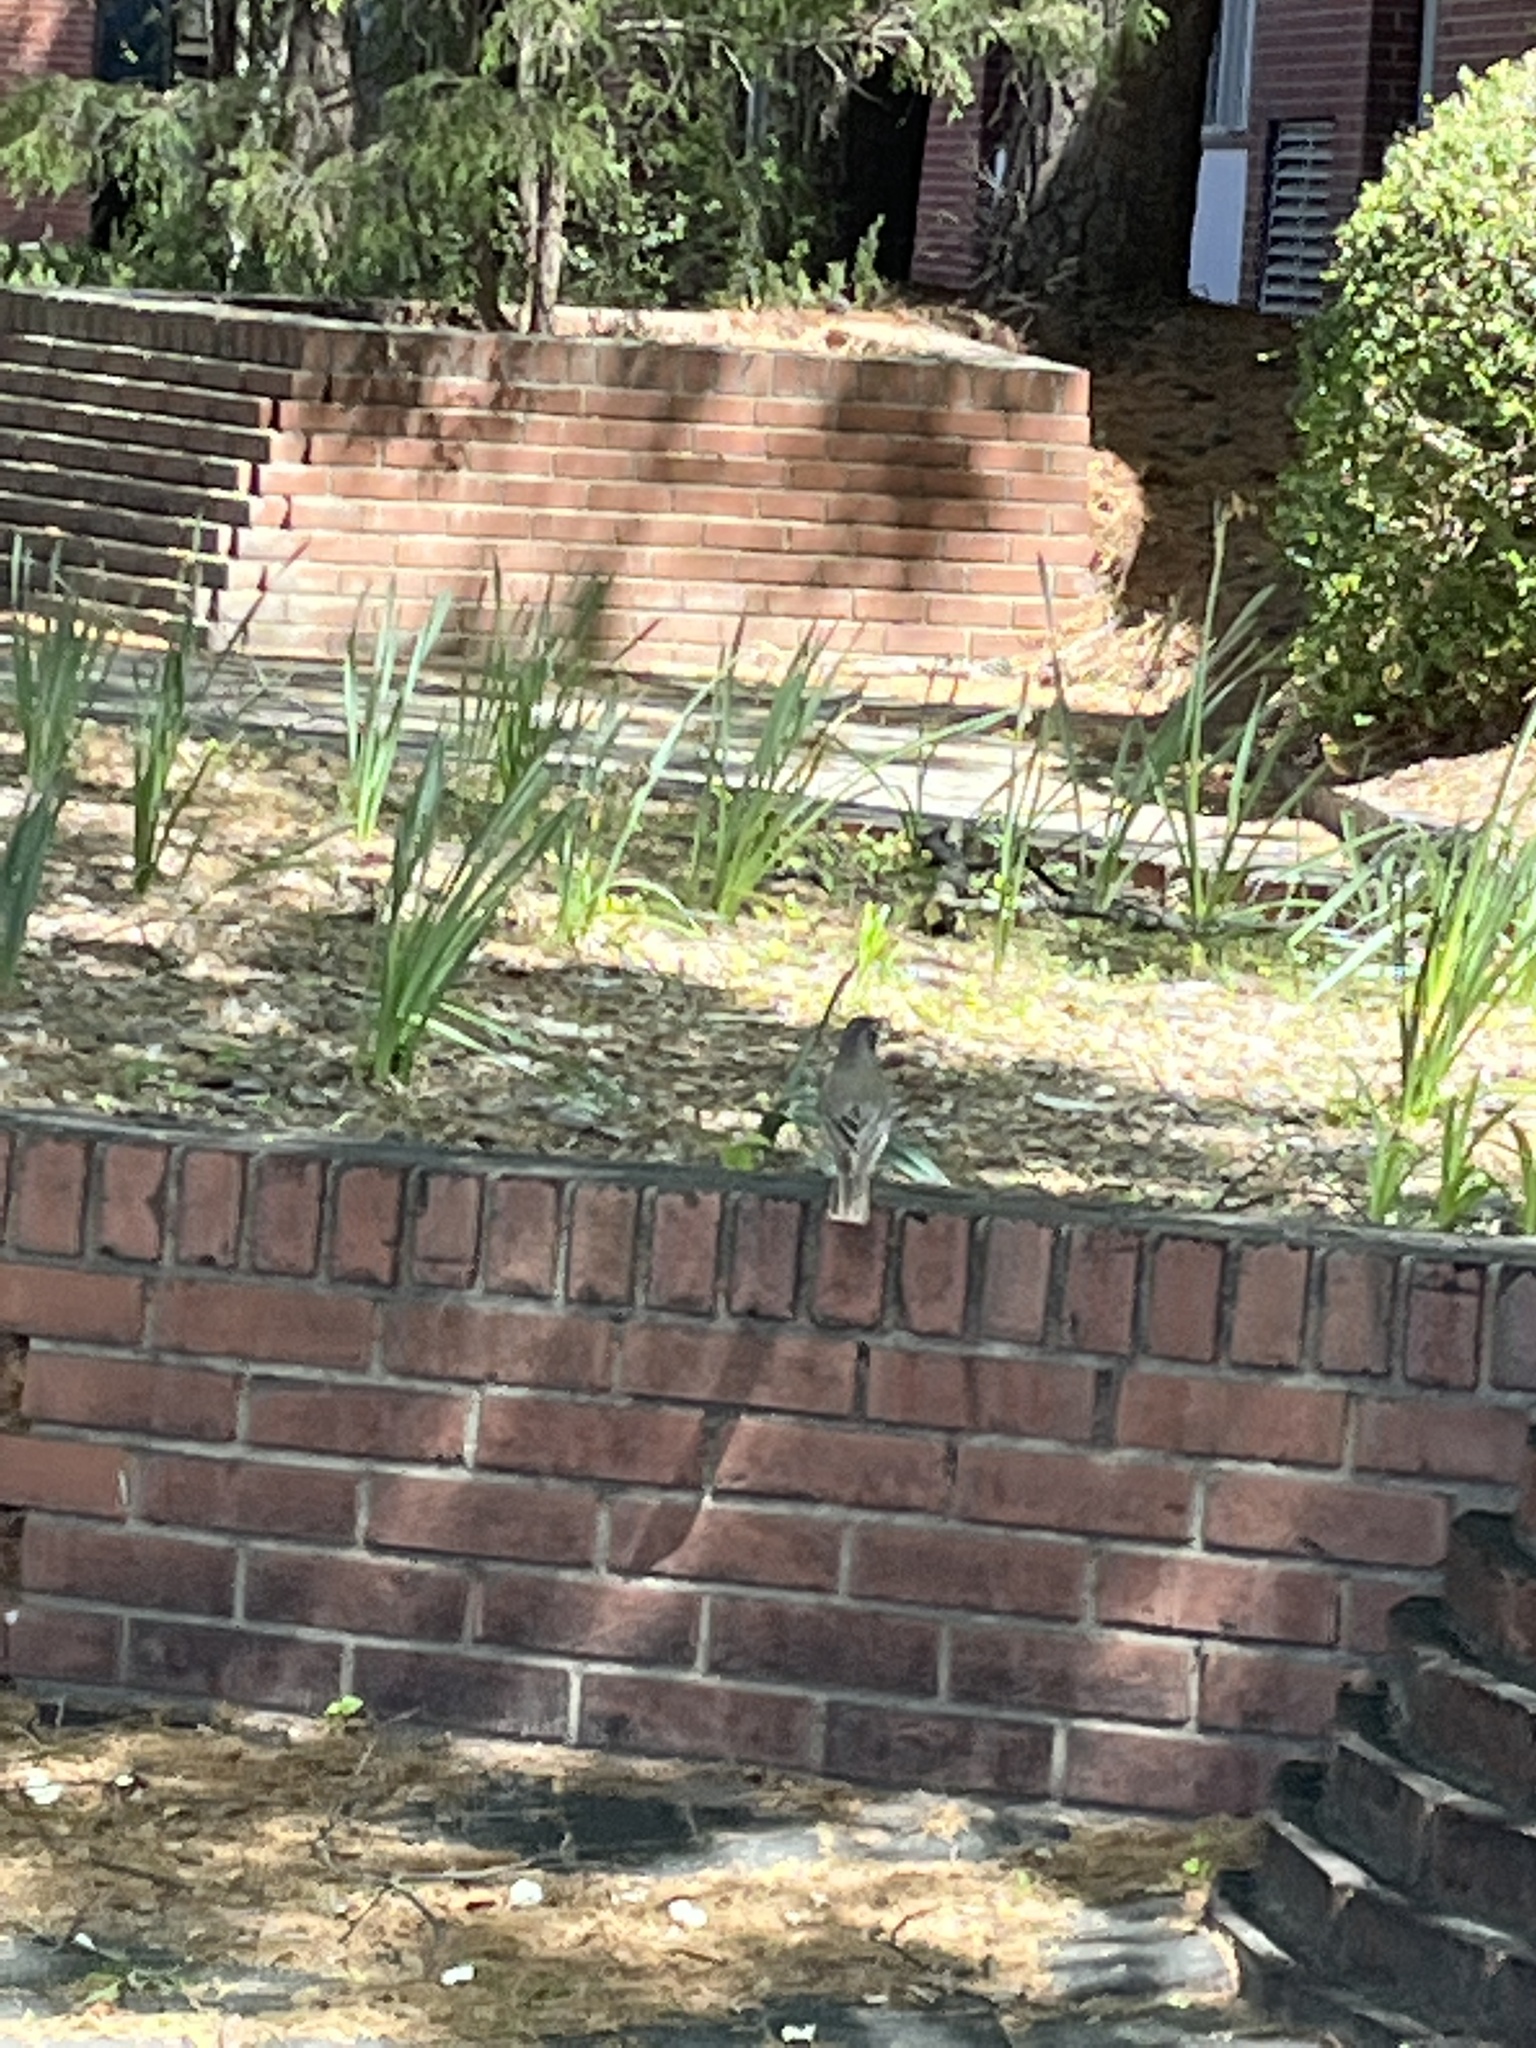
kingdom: Animalia
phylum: Chordata
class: Aves
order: Passeriformes
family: Turdidae
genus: Turdus
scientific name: Turdus migratorius
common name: American robin
